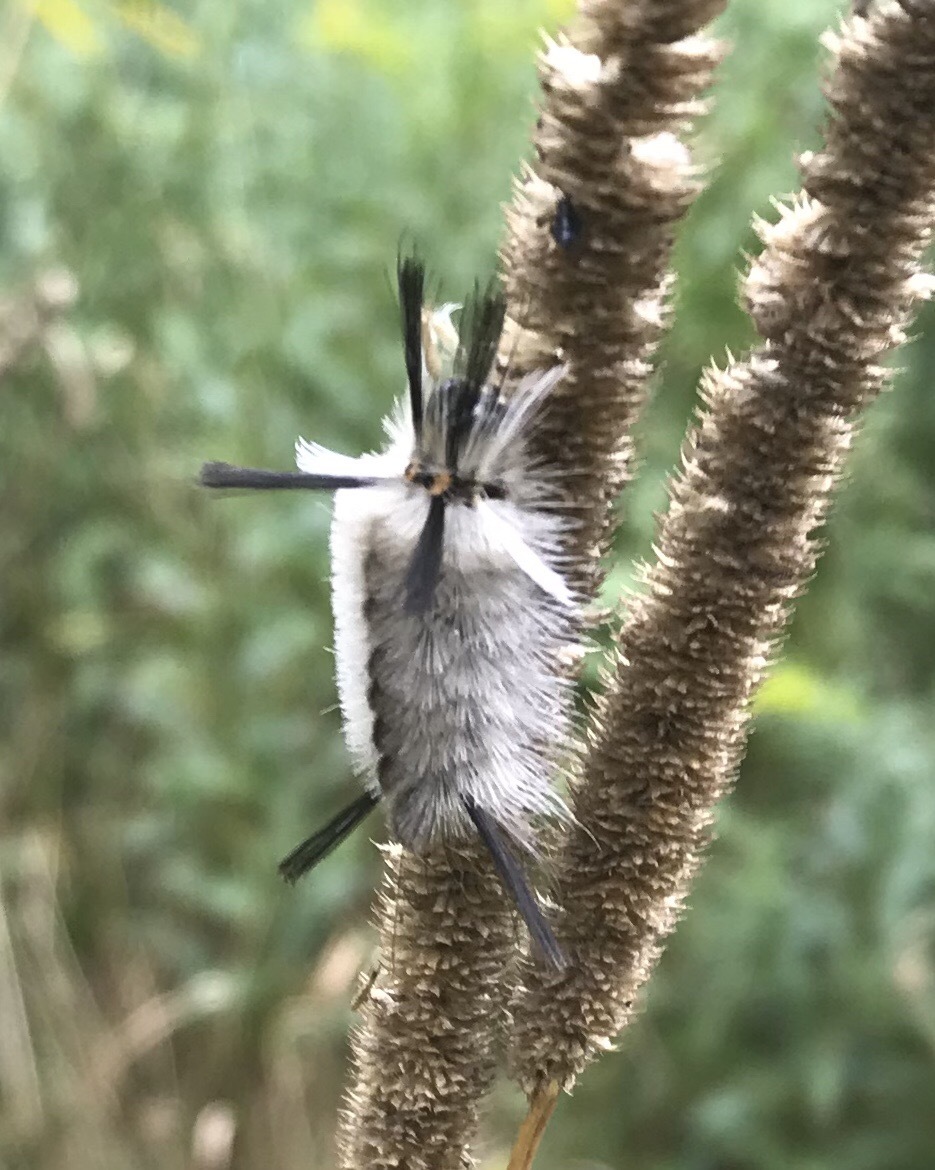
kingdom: Animalia
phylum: Arthropoda
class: Insecta
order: Lepidoptera
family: Erebidae
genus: Halysidota
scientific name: Halysidota tessellaris
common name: Banded tussock moth
